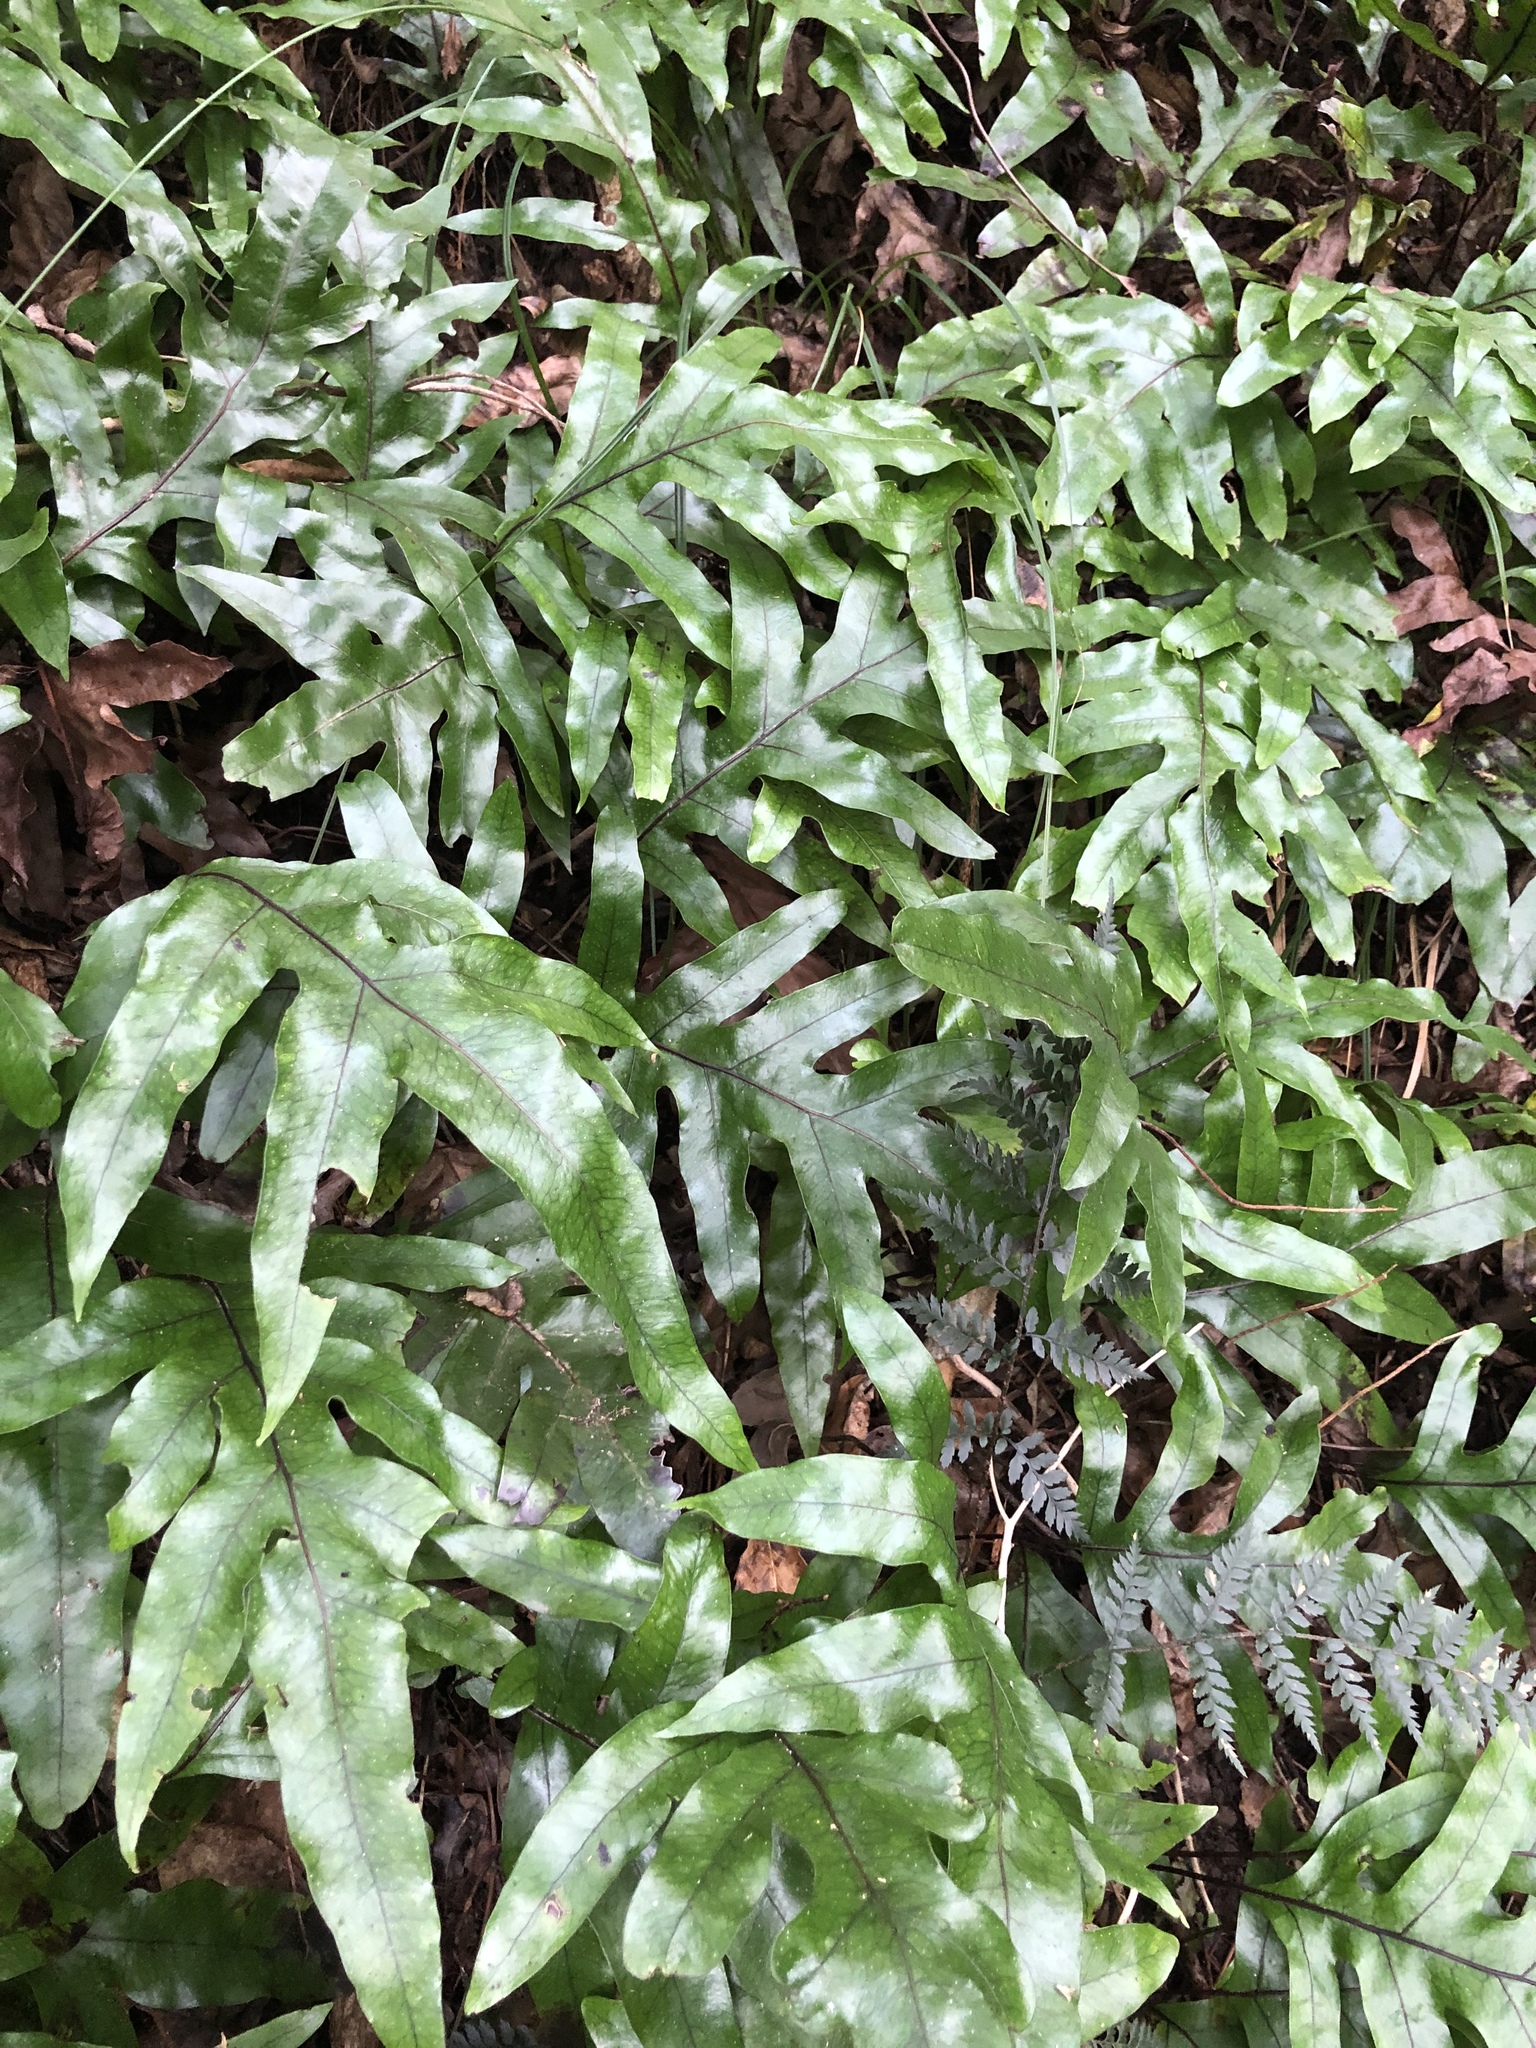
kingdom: Plantae
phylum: Tracheophyta
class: Polypodiopsida
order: Polypodiales
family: Polypodiaceae
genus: Lecanopteris
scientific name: Lecanopteris pustulata
